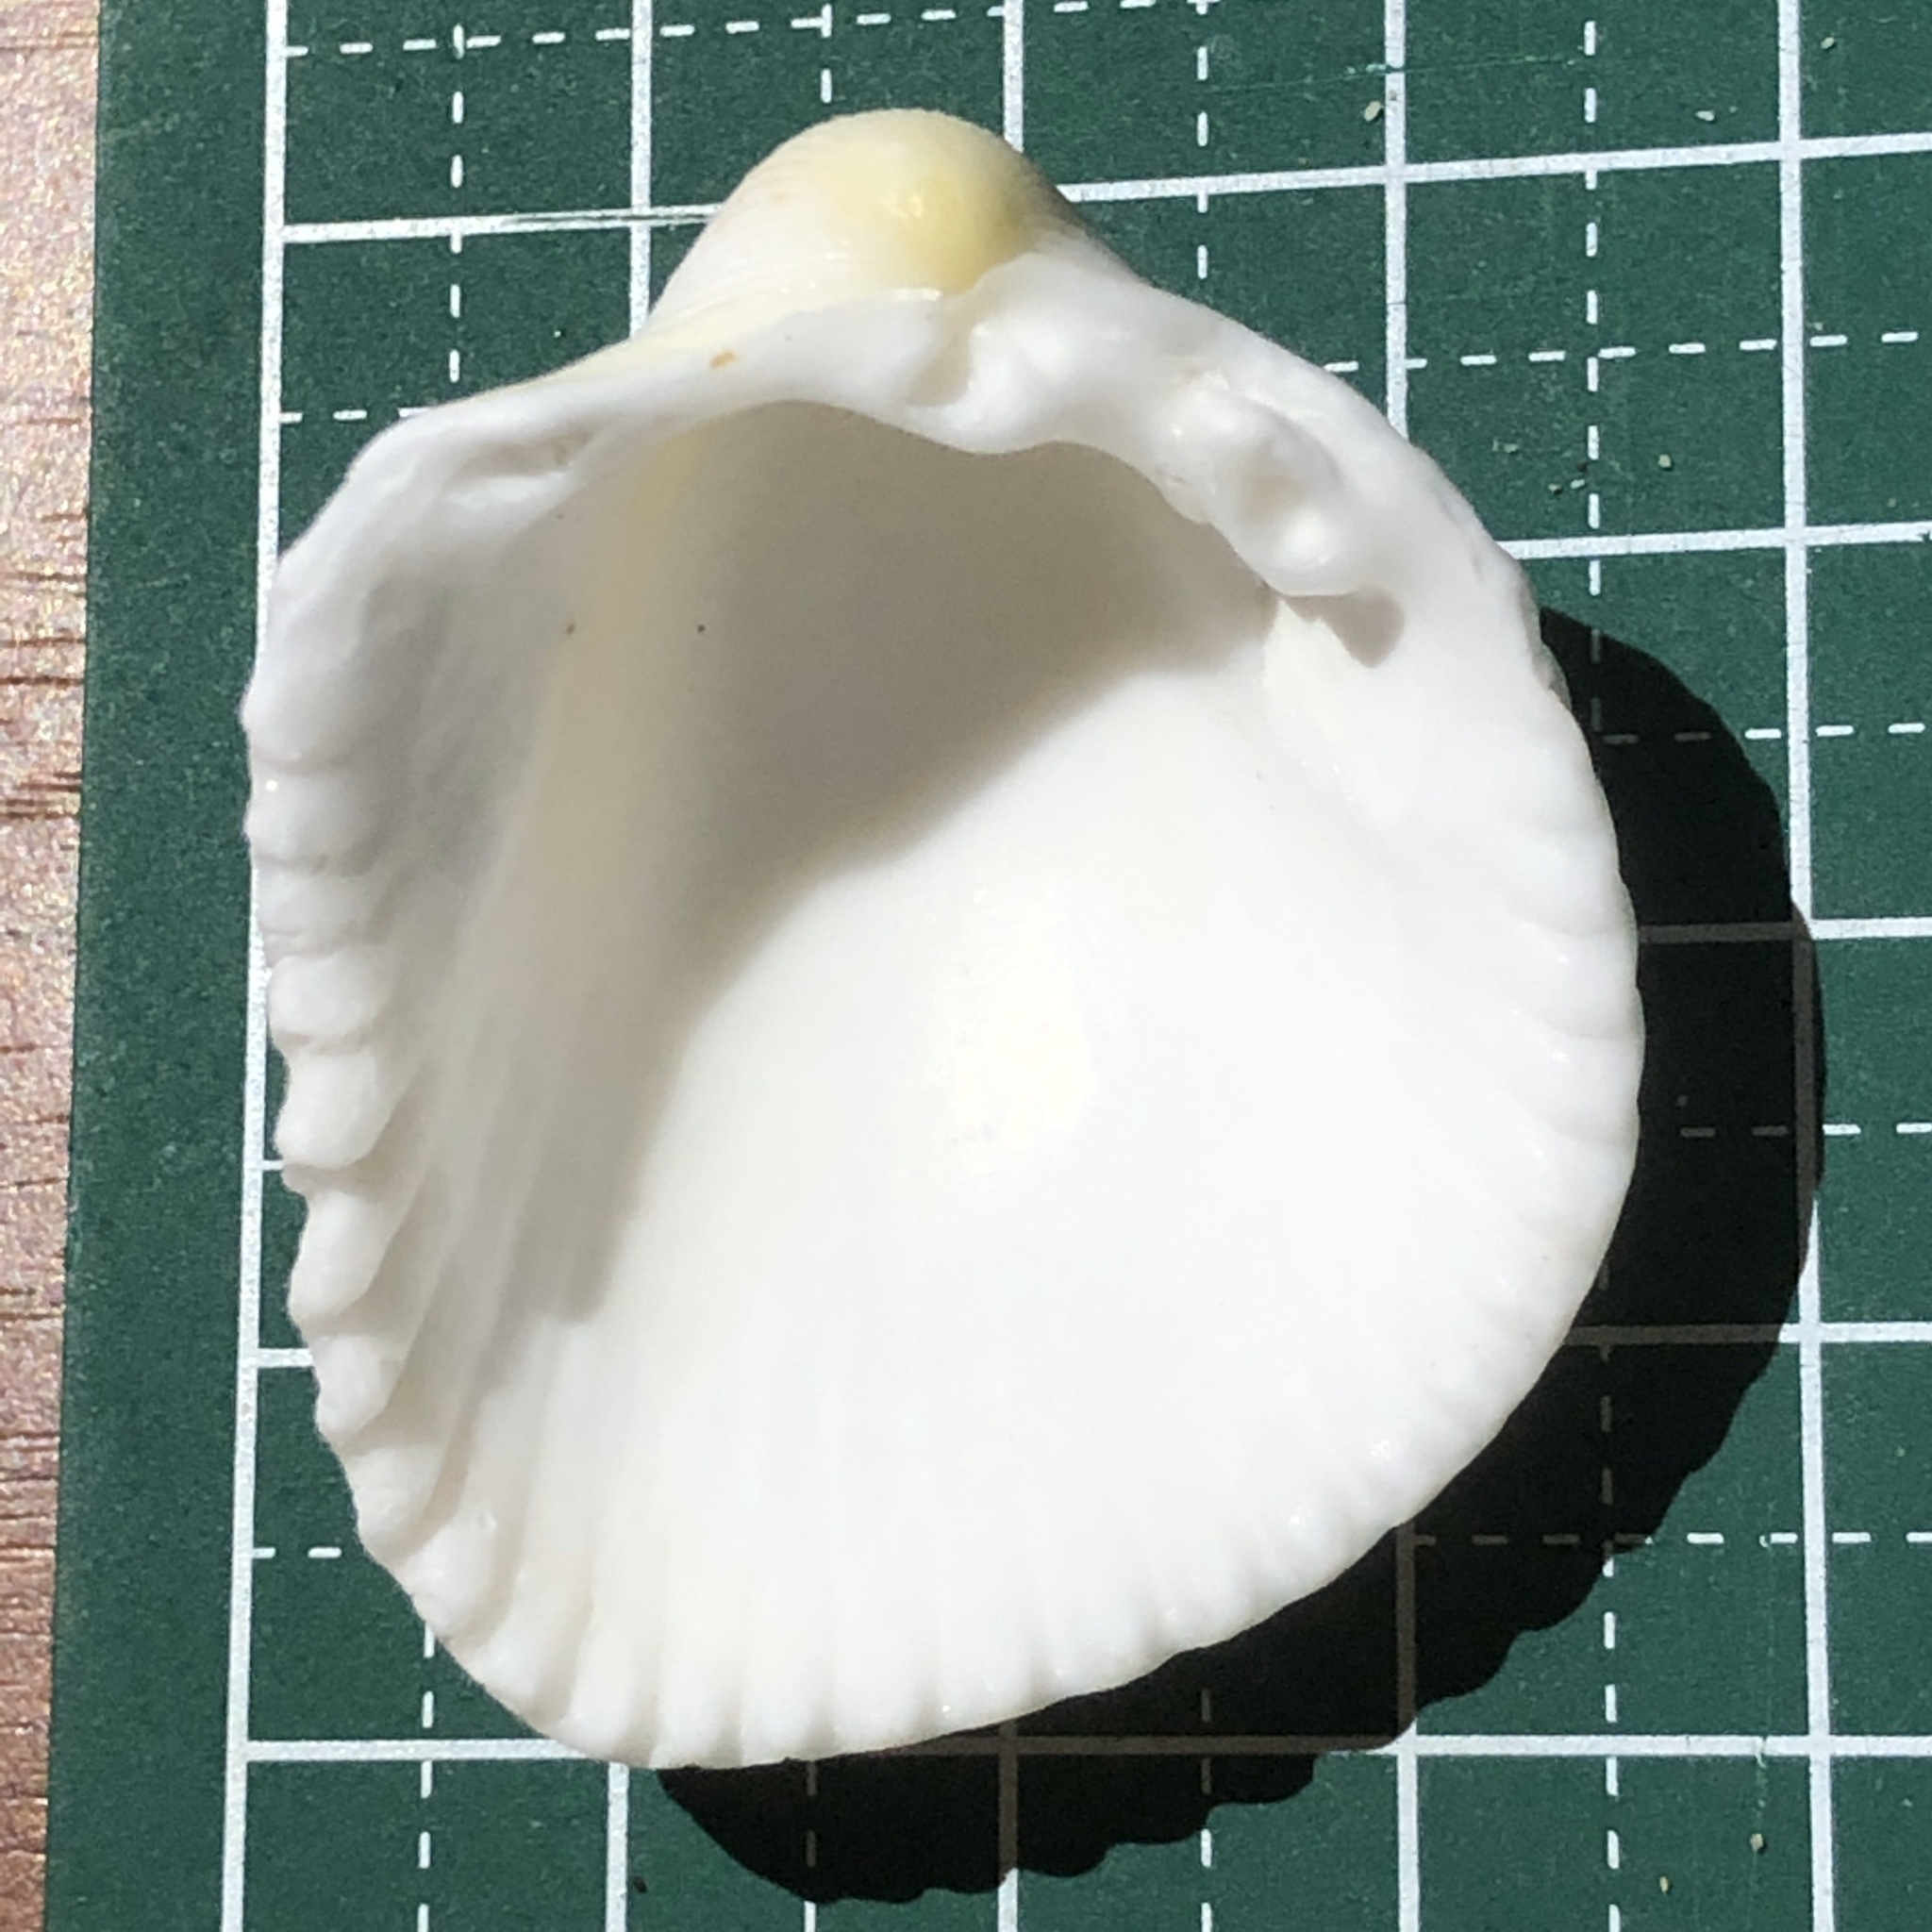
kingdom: Animalia
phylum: Mollusca
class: Bivalvia
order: Cardiida
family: Cardiidae
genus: Fragum
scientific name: Fragum unedo
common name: Strawberry cockle
